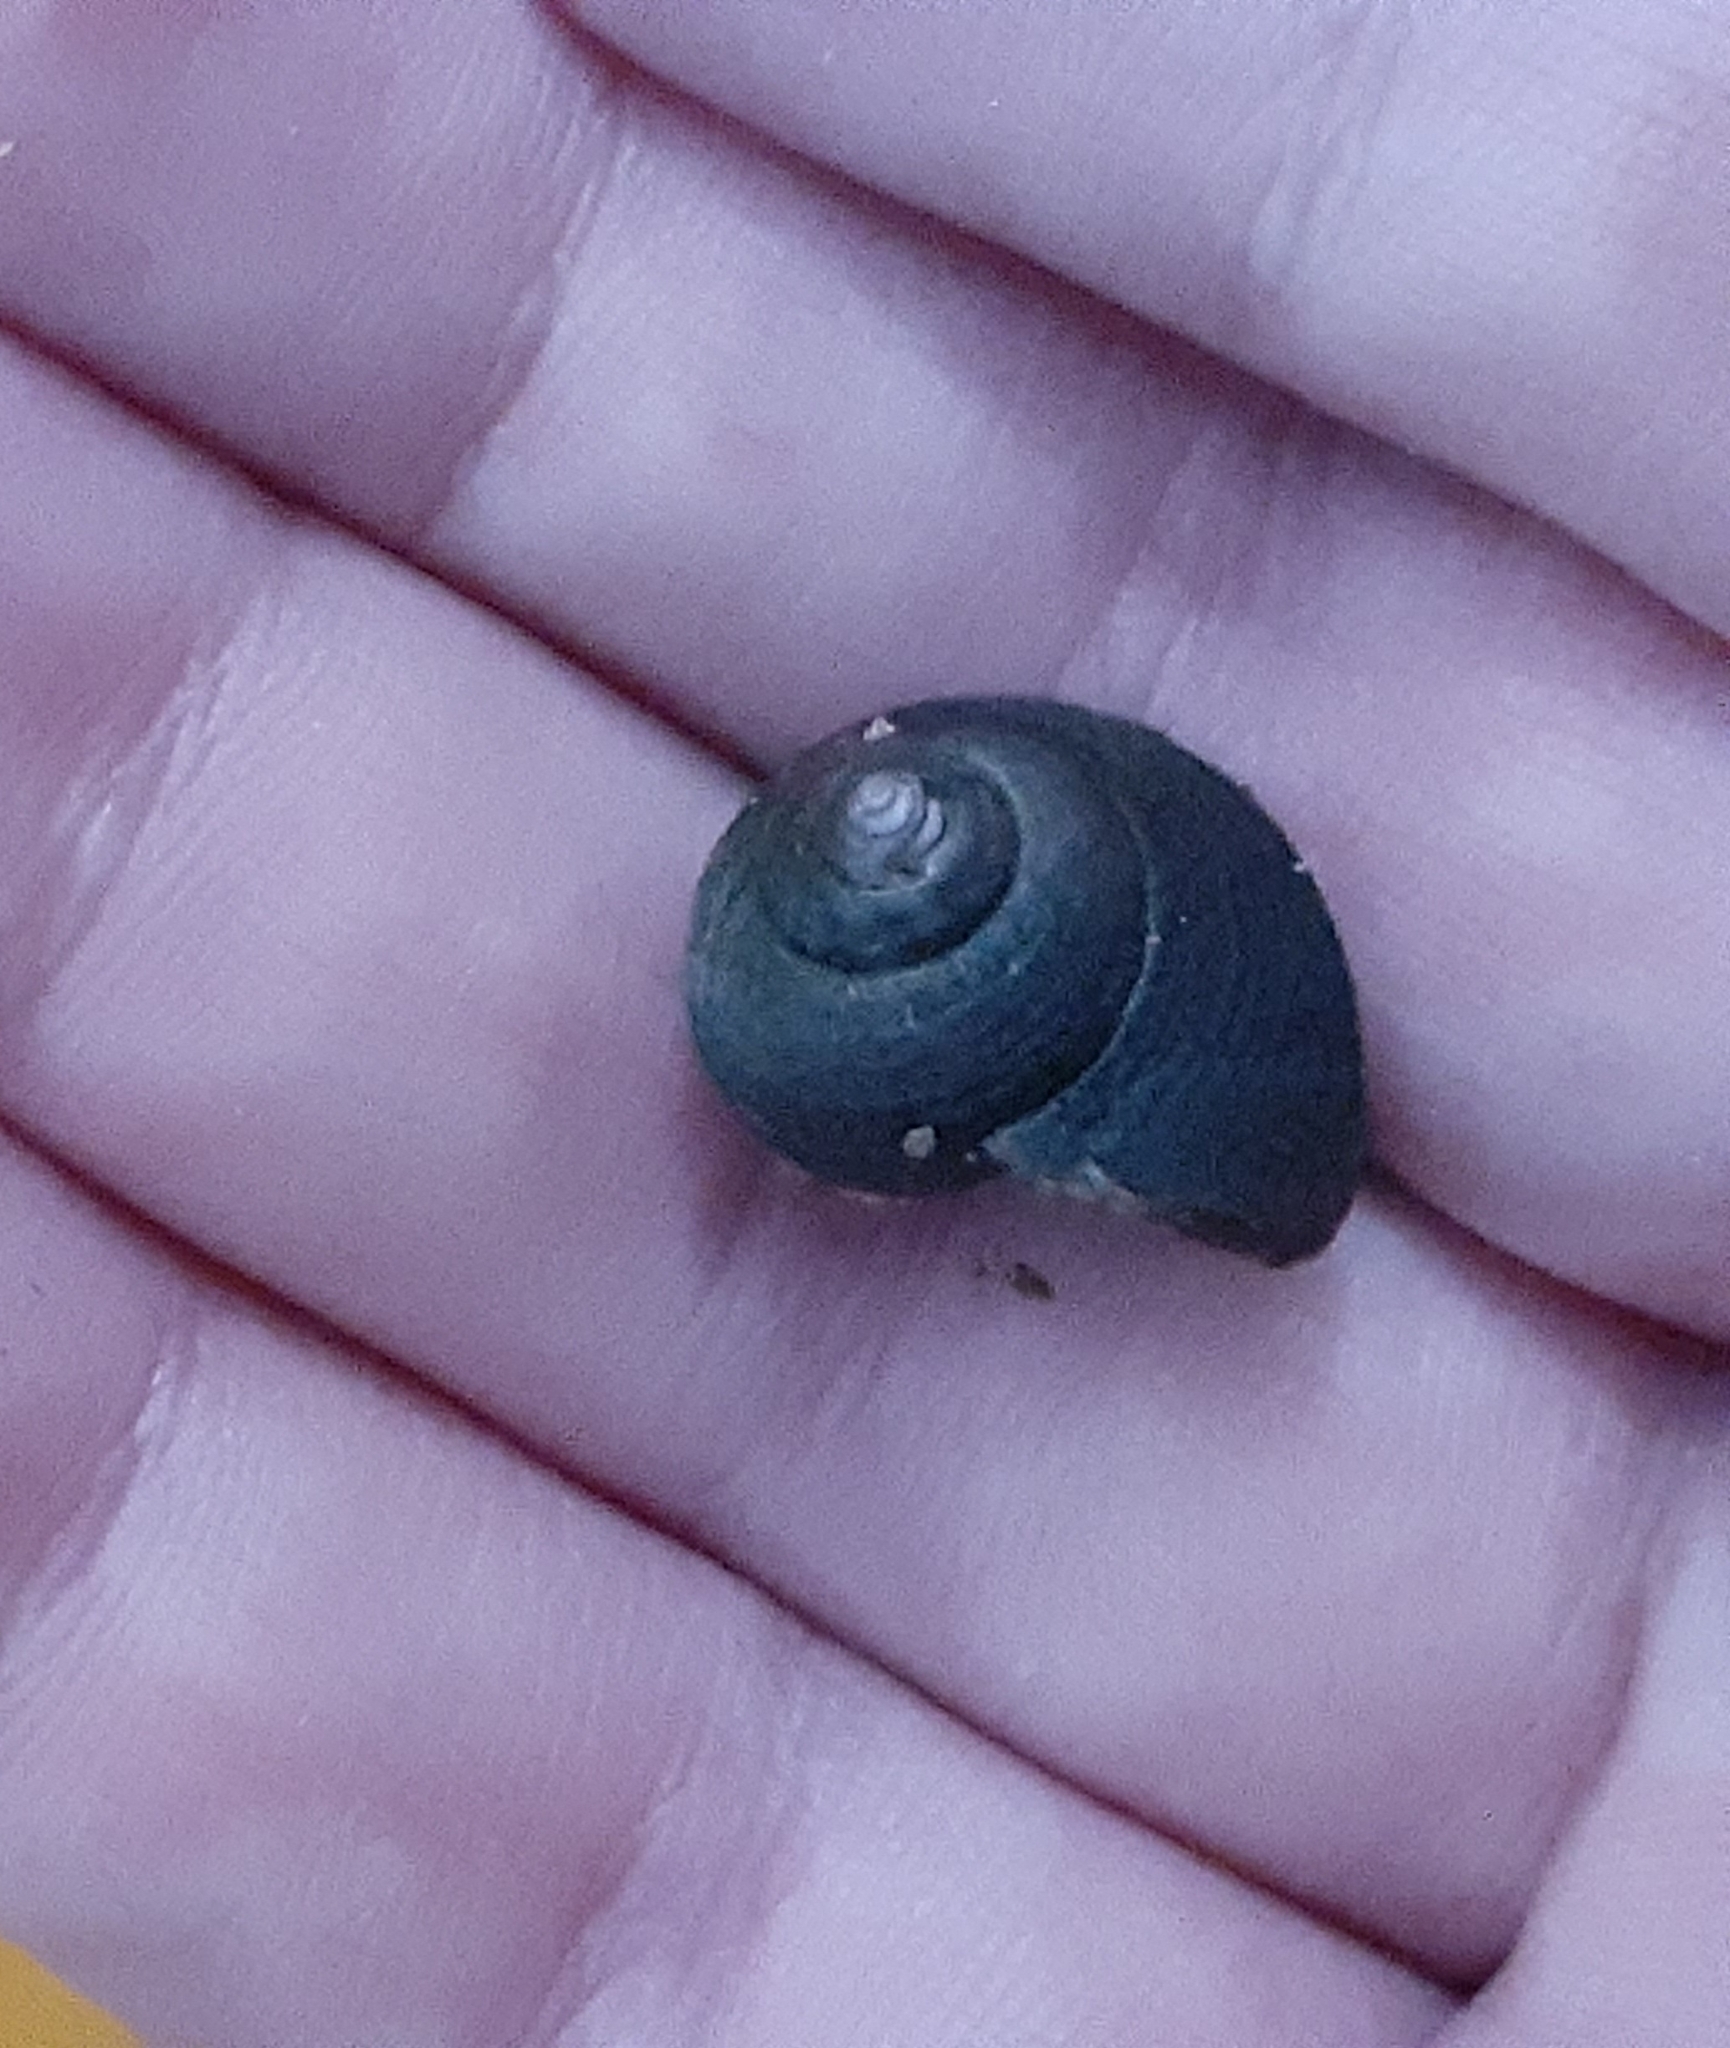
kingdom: Animalia
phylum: Mollusca
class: Gastropoda
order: Littorinimorpha
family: Littorinidae
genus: Littorina
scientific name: Littorina littorea
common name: Common periwinkle
